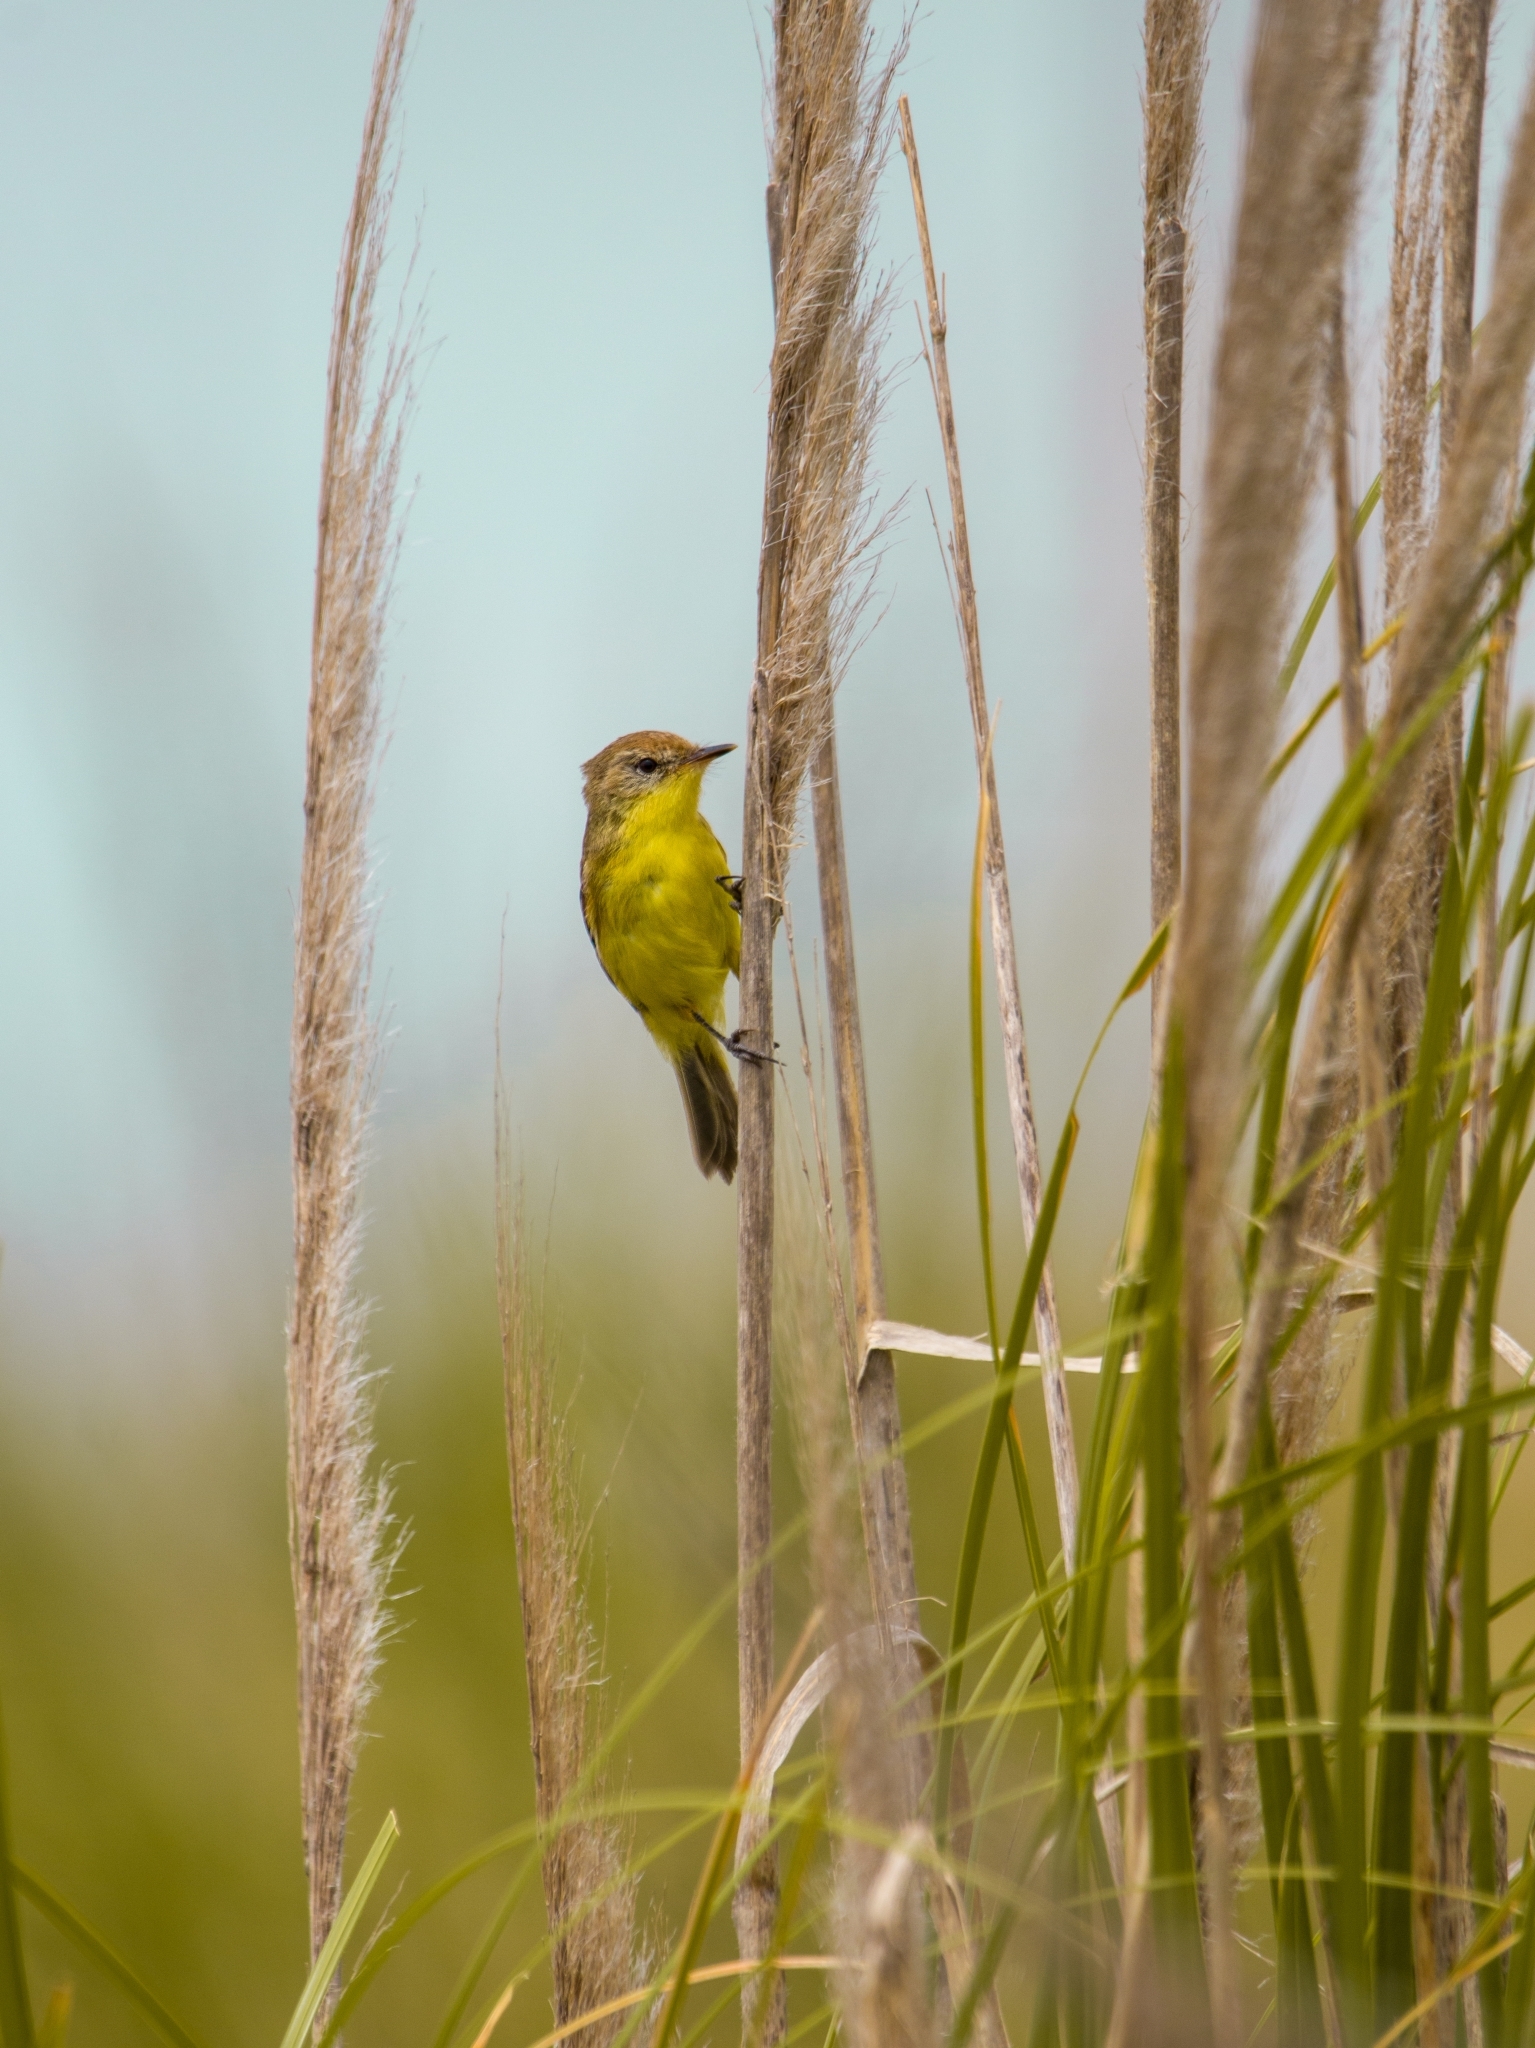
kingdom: Animalia
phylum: Chordata
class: Aves
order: Passeriformes
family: Tyrannidae
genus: Pseudocolopteryx
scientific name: Pseudocolopteryx flaviventris
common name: Warbling doradito
